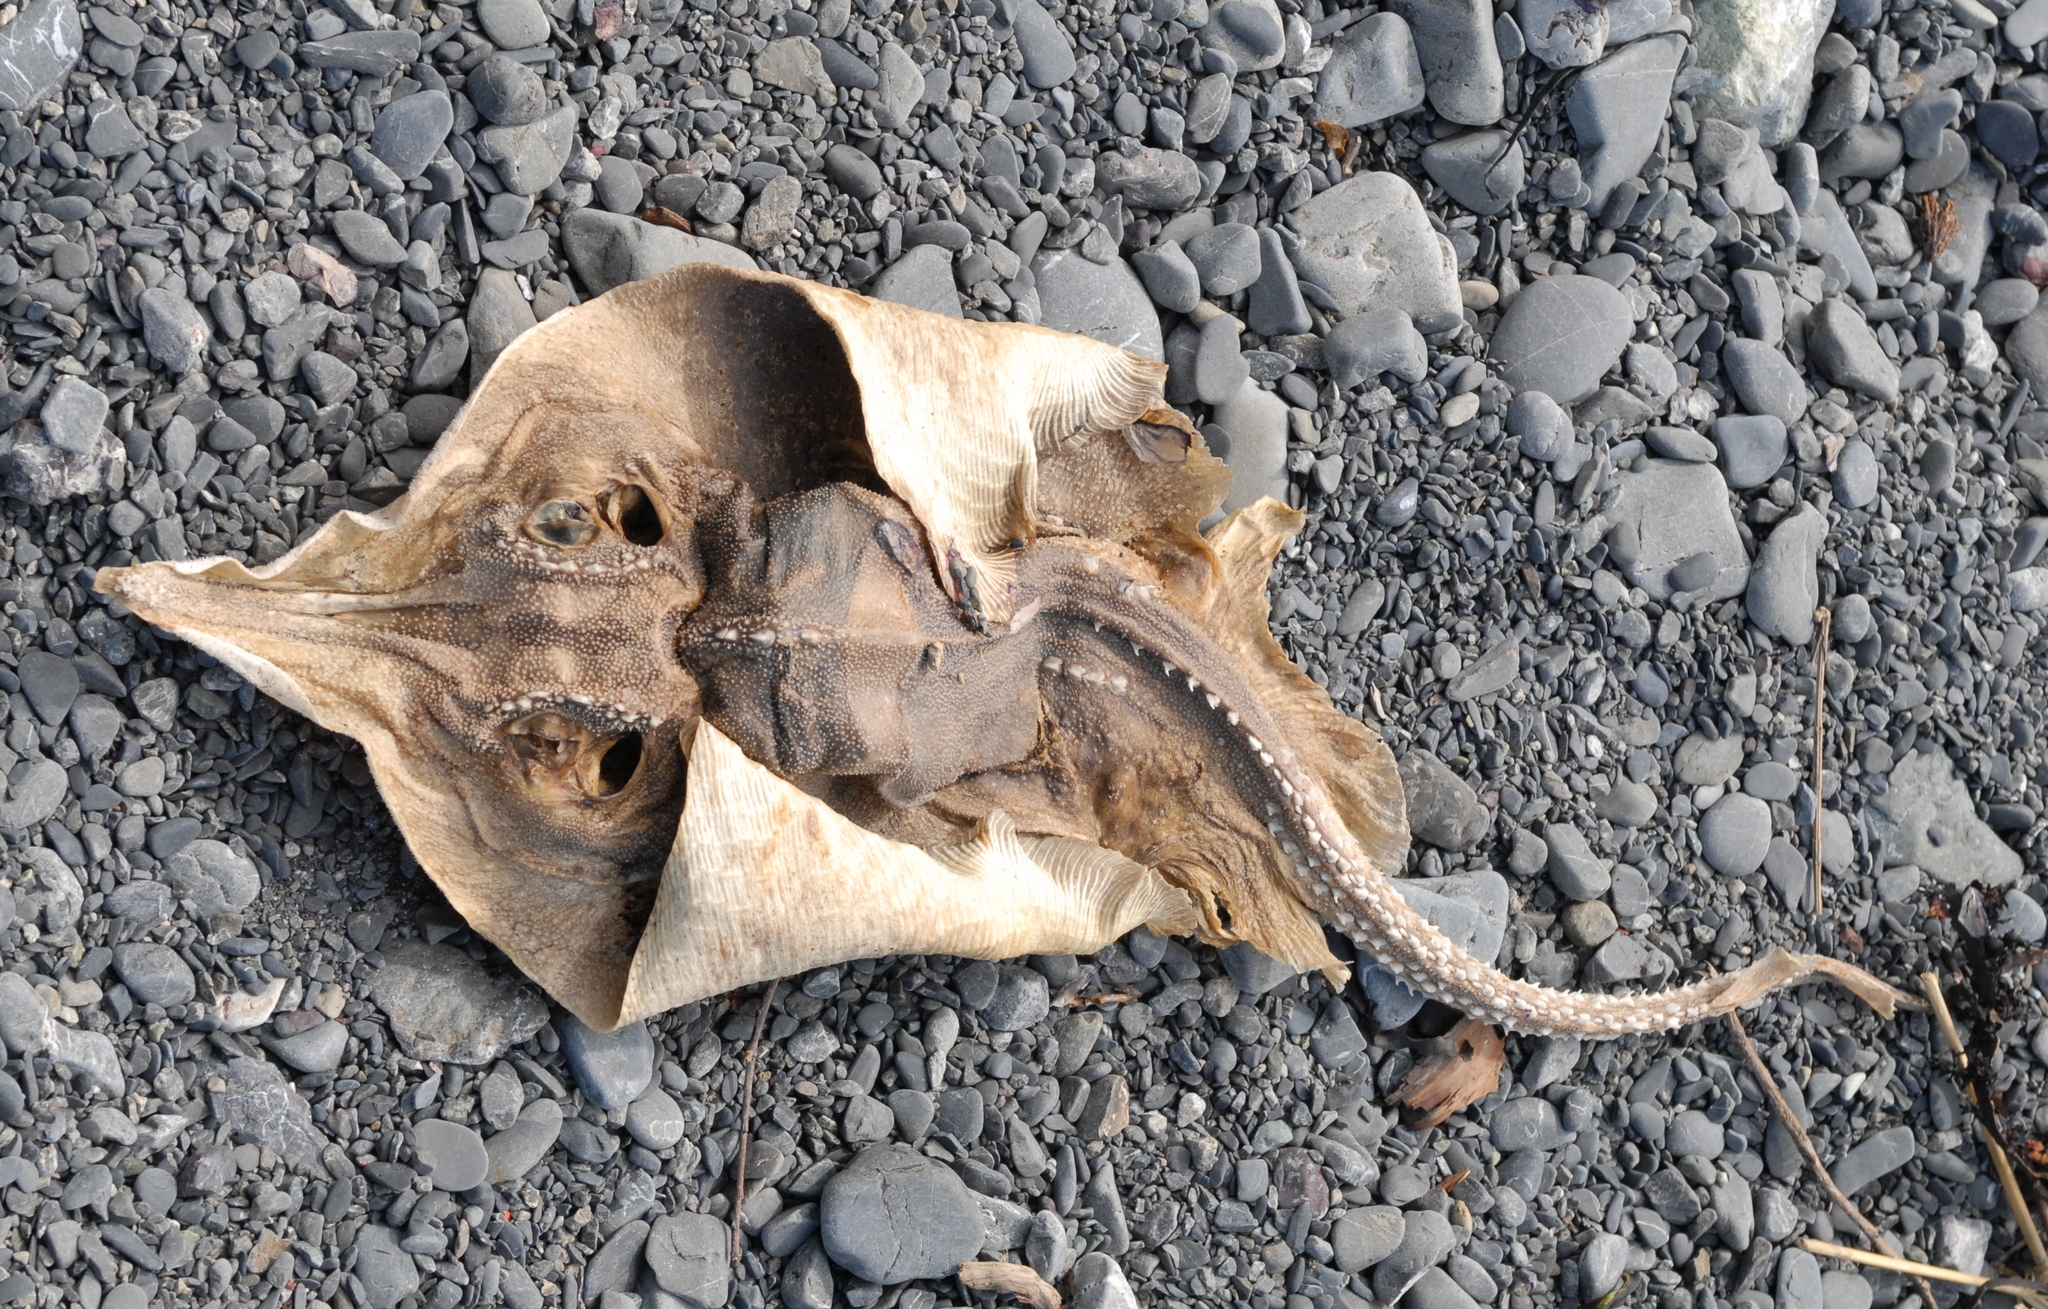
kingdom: Animalia
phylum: Chordata
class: Elasmobranchii
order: Rajiformes
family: Rajidae
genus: Zearaja
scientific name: Zearaja nasuta
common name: New zealand rough skate
